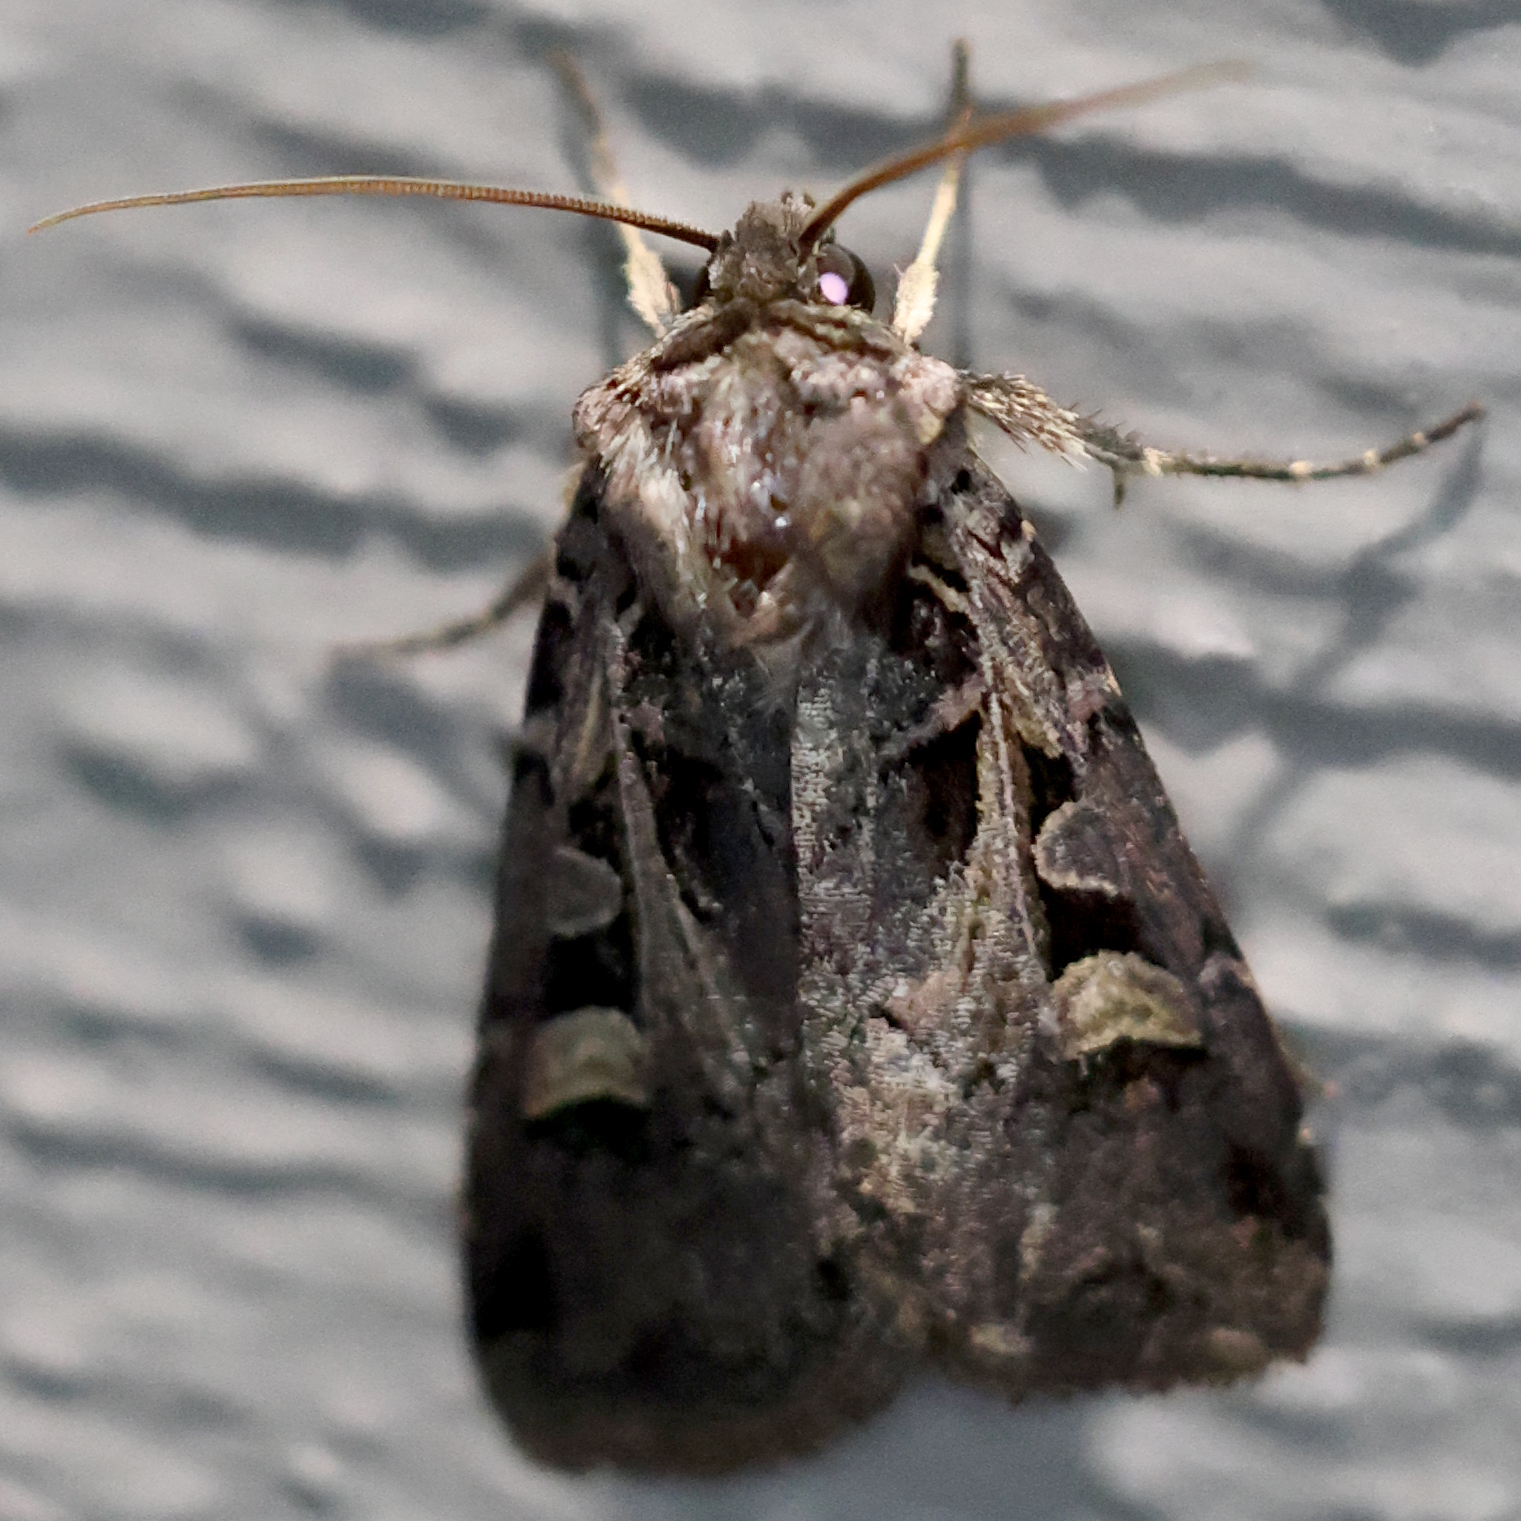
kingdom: Animalia
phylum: Arthropoda
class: Insecta
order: Lepidoptera
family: Noctuidae
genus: Feltia
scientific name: Feltia herilis
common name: Master's dart
